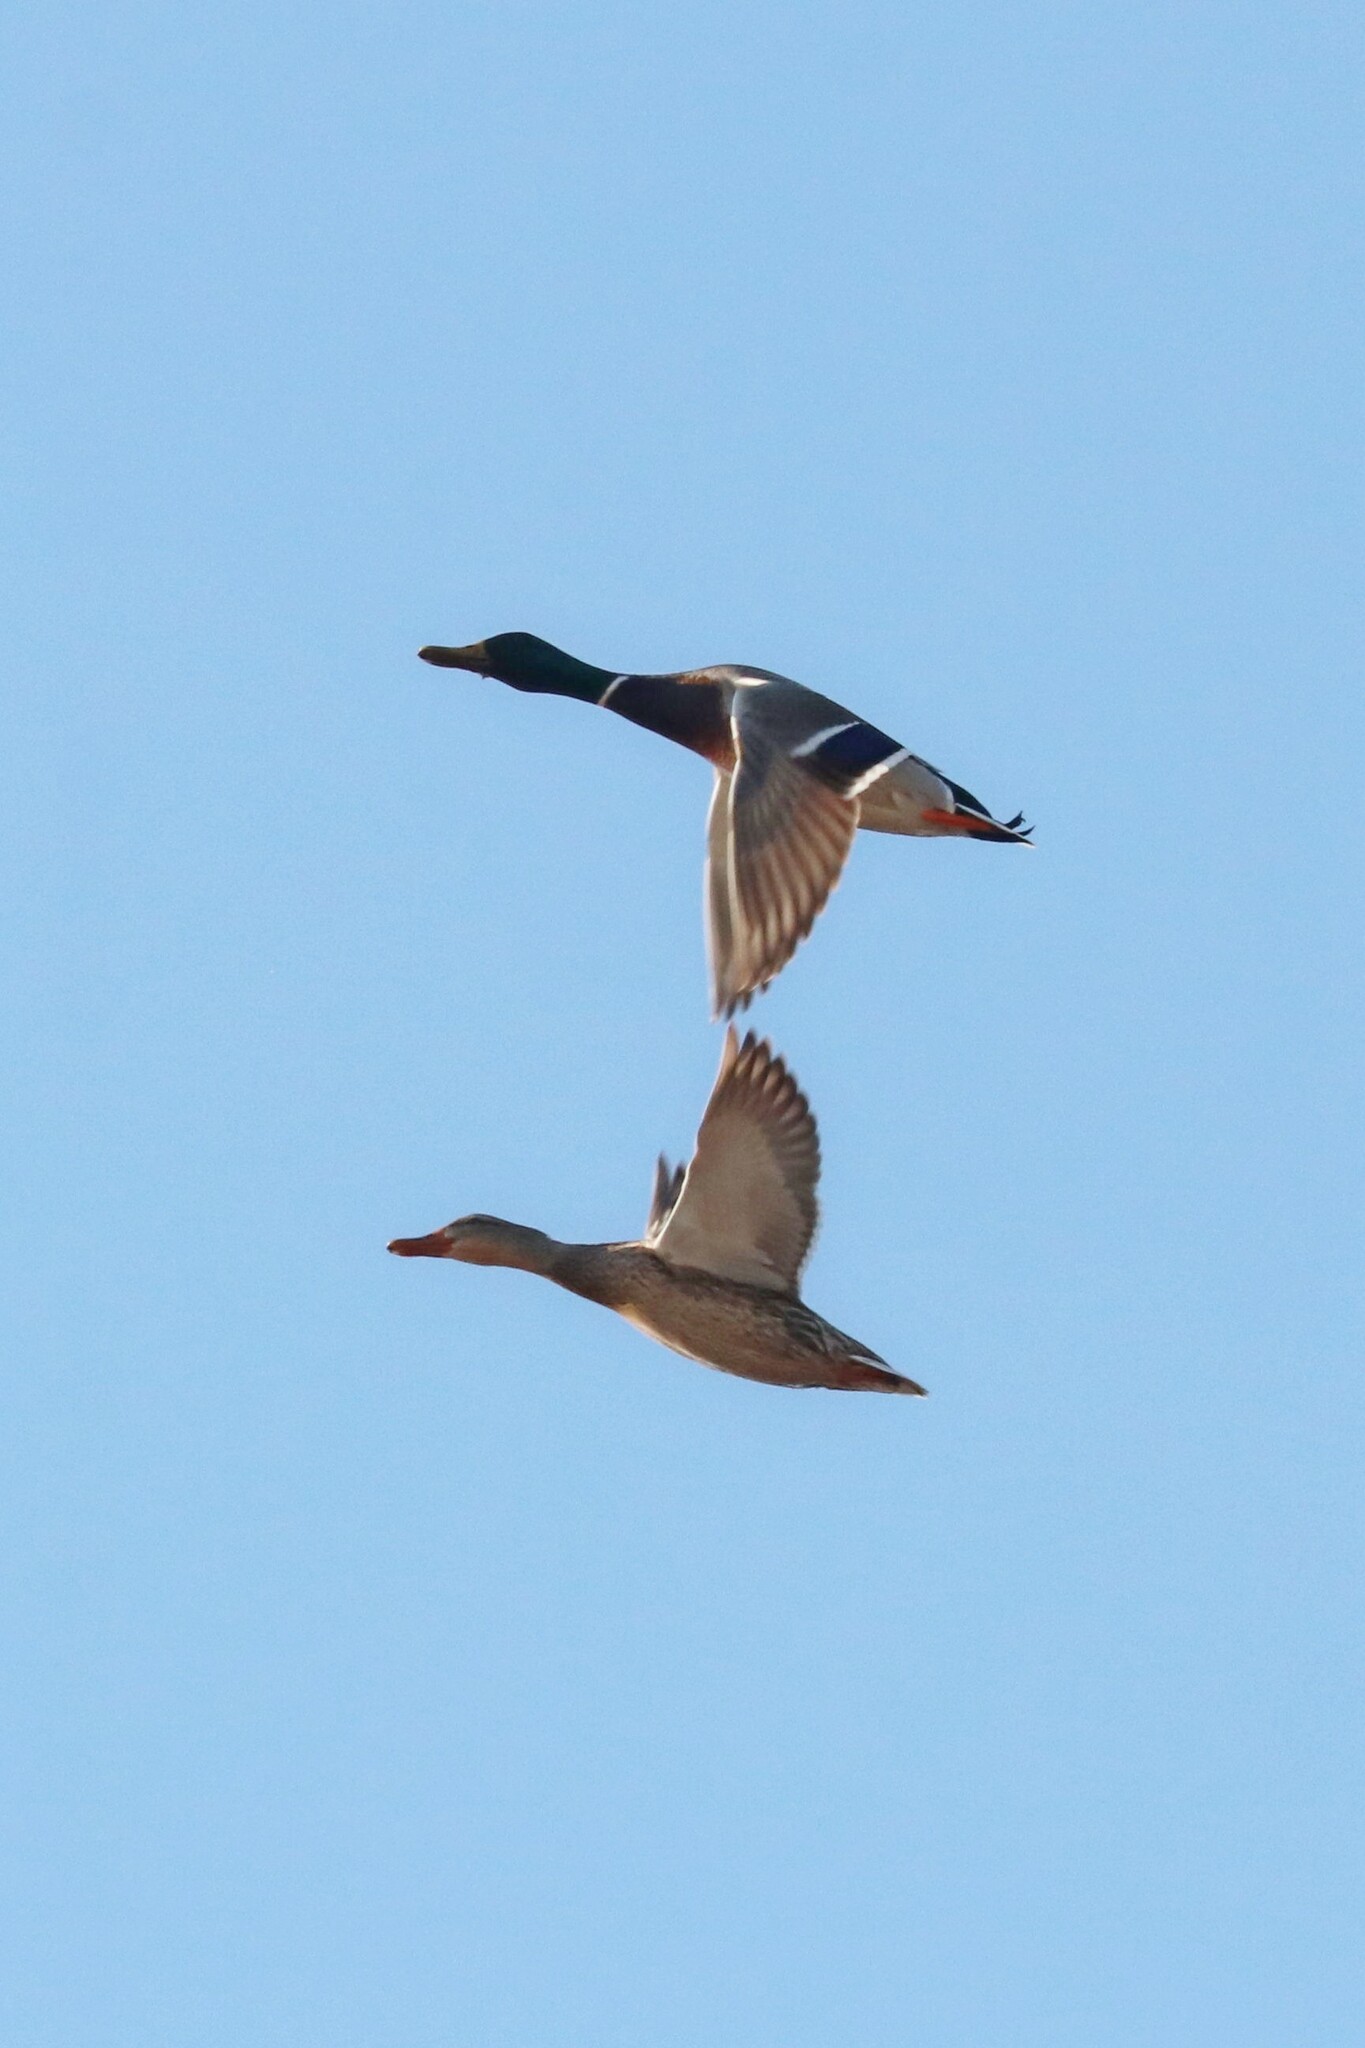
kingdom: Animalia
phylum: Chordata
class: Aves
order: Anseriformes
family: Anatidae
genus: Anas
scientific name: Anas platyrhynchos
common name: Mallard
